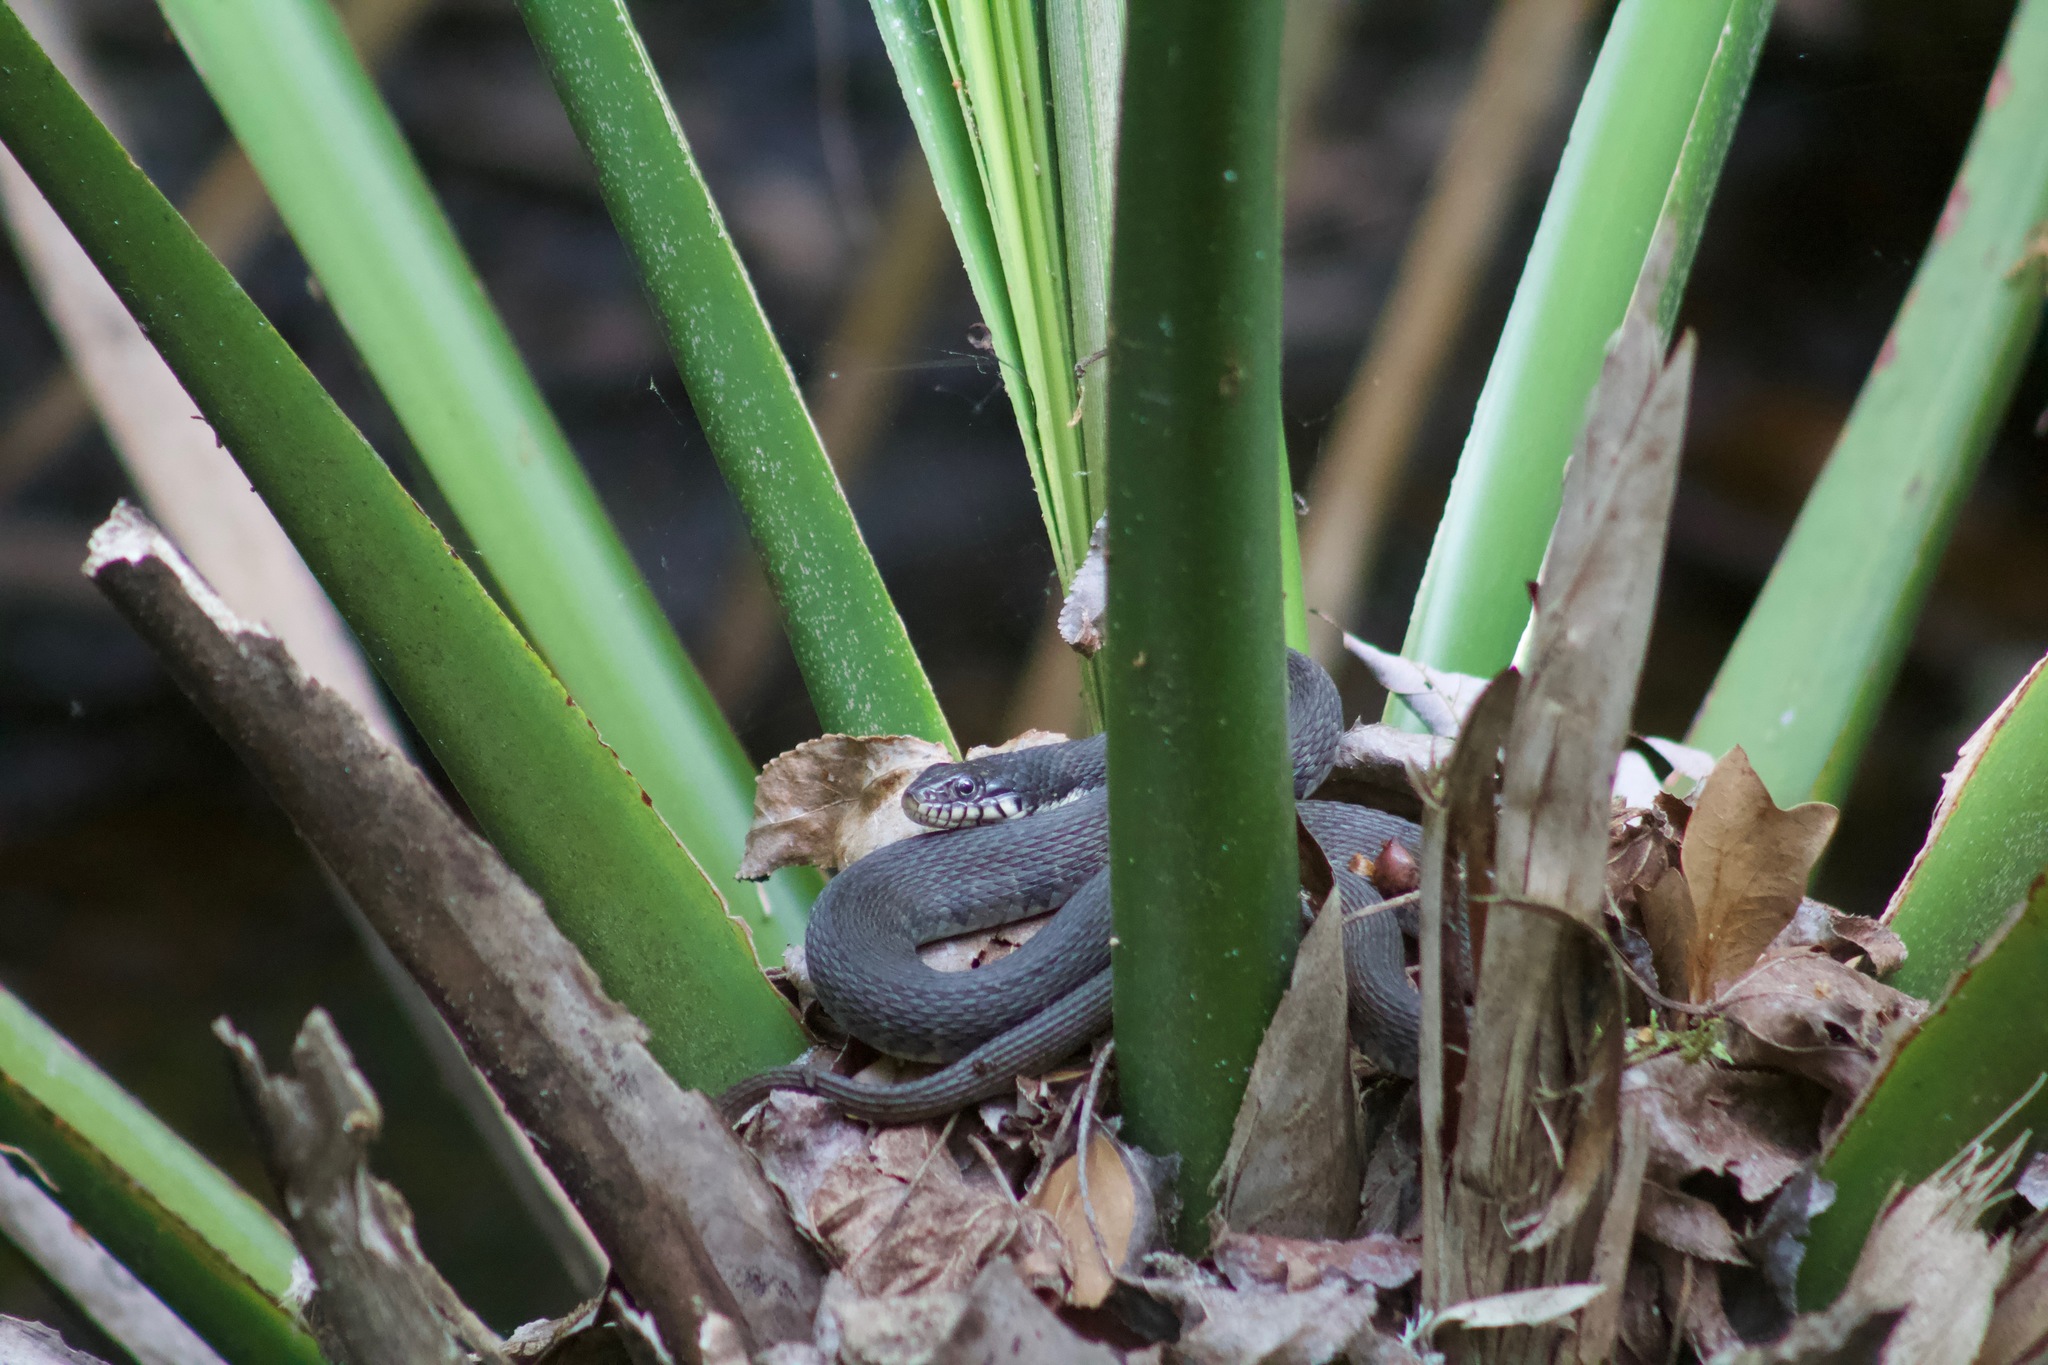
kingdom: Animalia
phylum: Chordata
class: Squamata
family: Colubridae
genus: Nerodia
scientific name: Nerodia erythrogaster
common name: Plainbelly water snake
